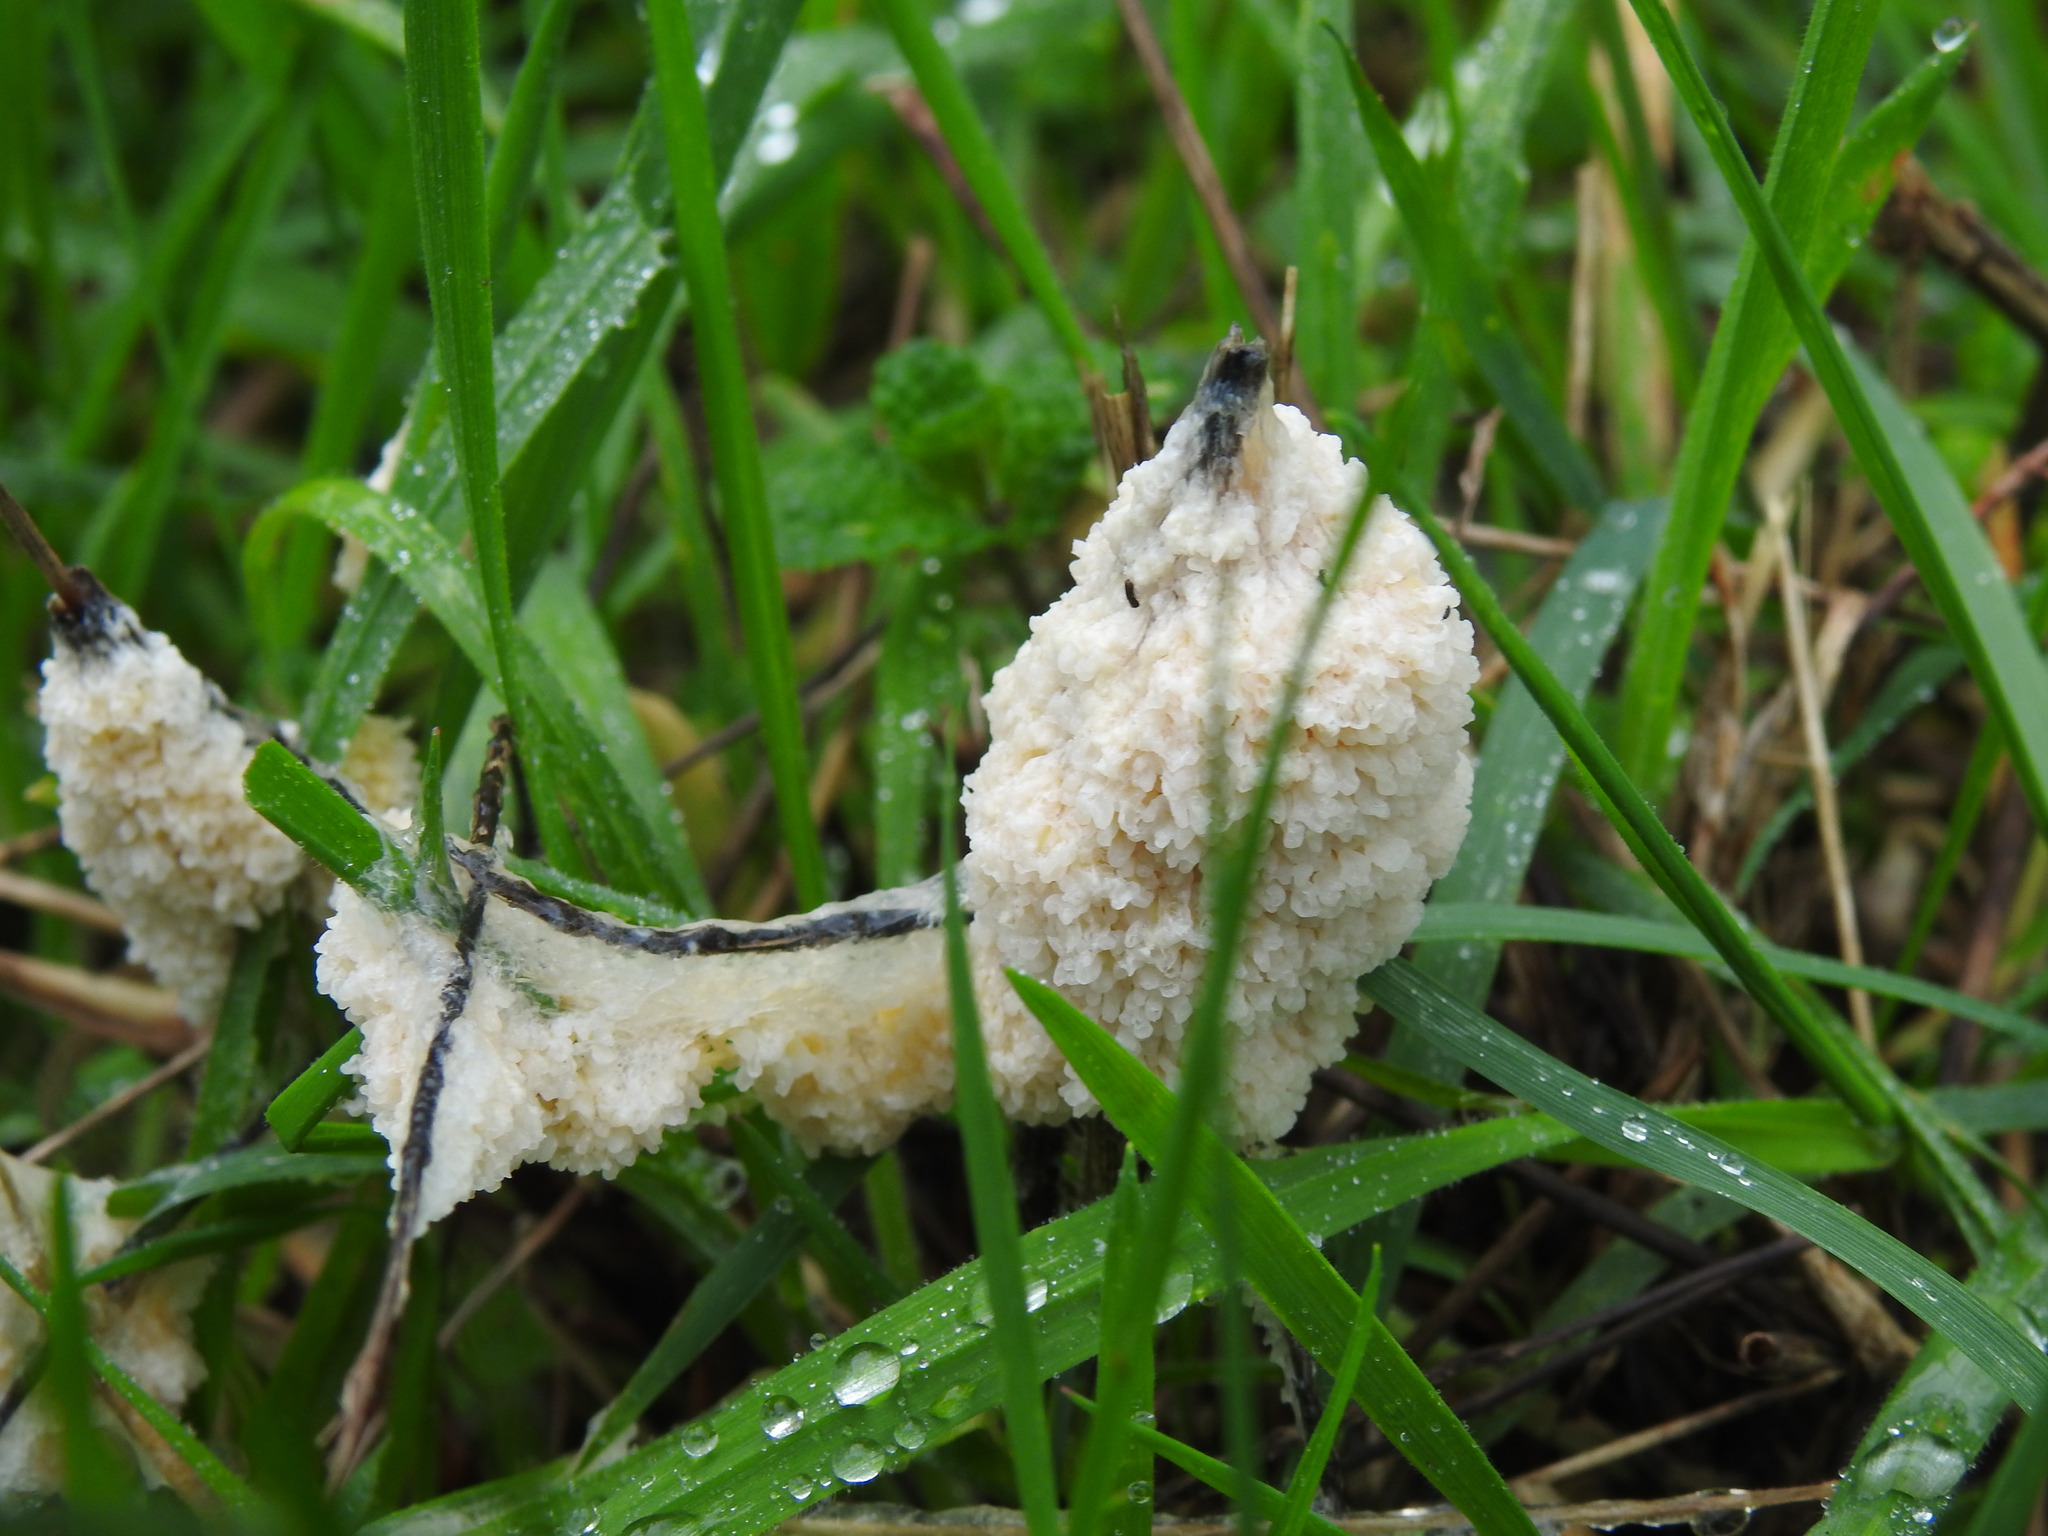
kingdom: Protozoa
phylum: Mycetozoa
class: Myxomycetes
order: Physarales
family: Physaraceae
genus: Didymium
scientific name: Didymium
